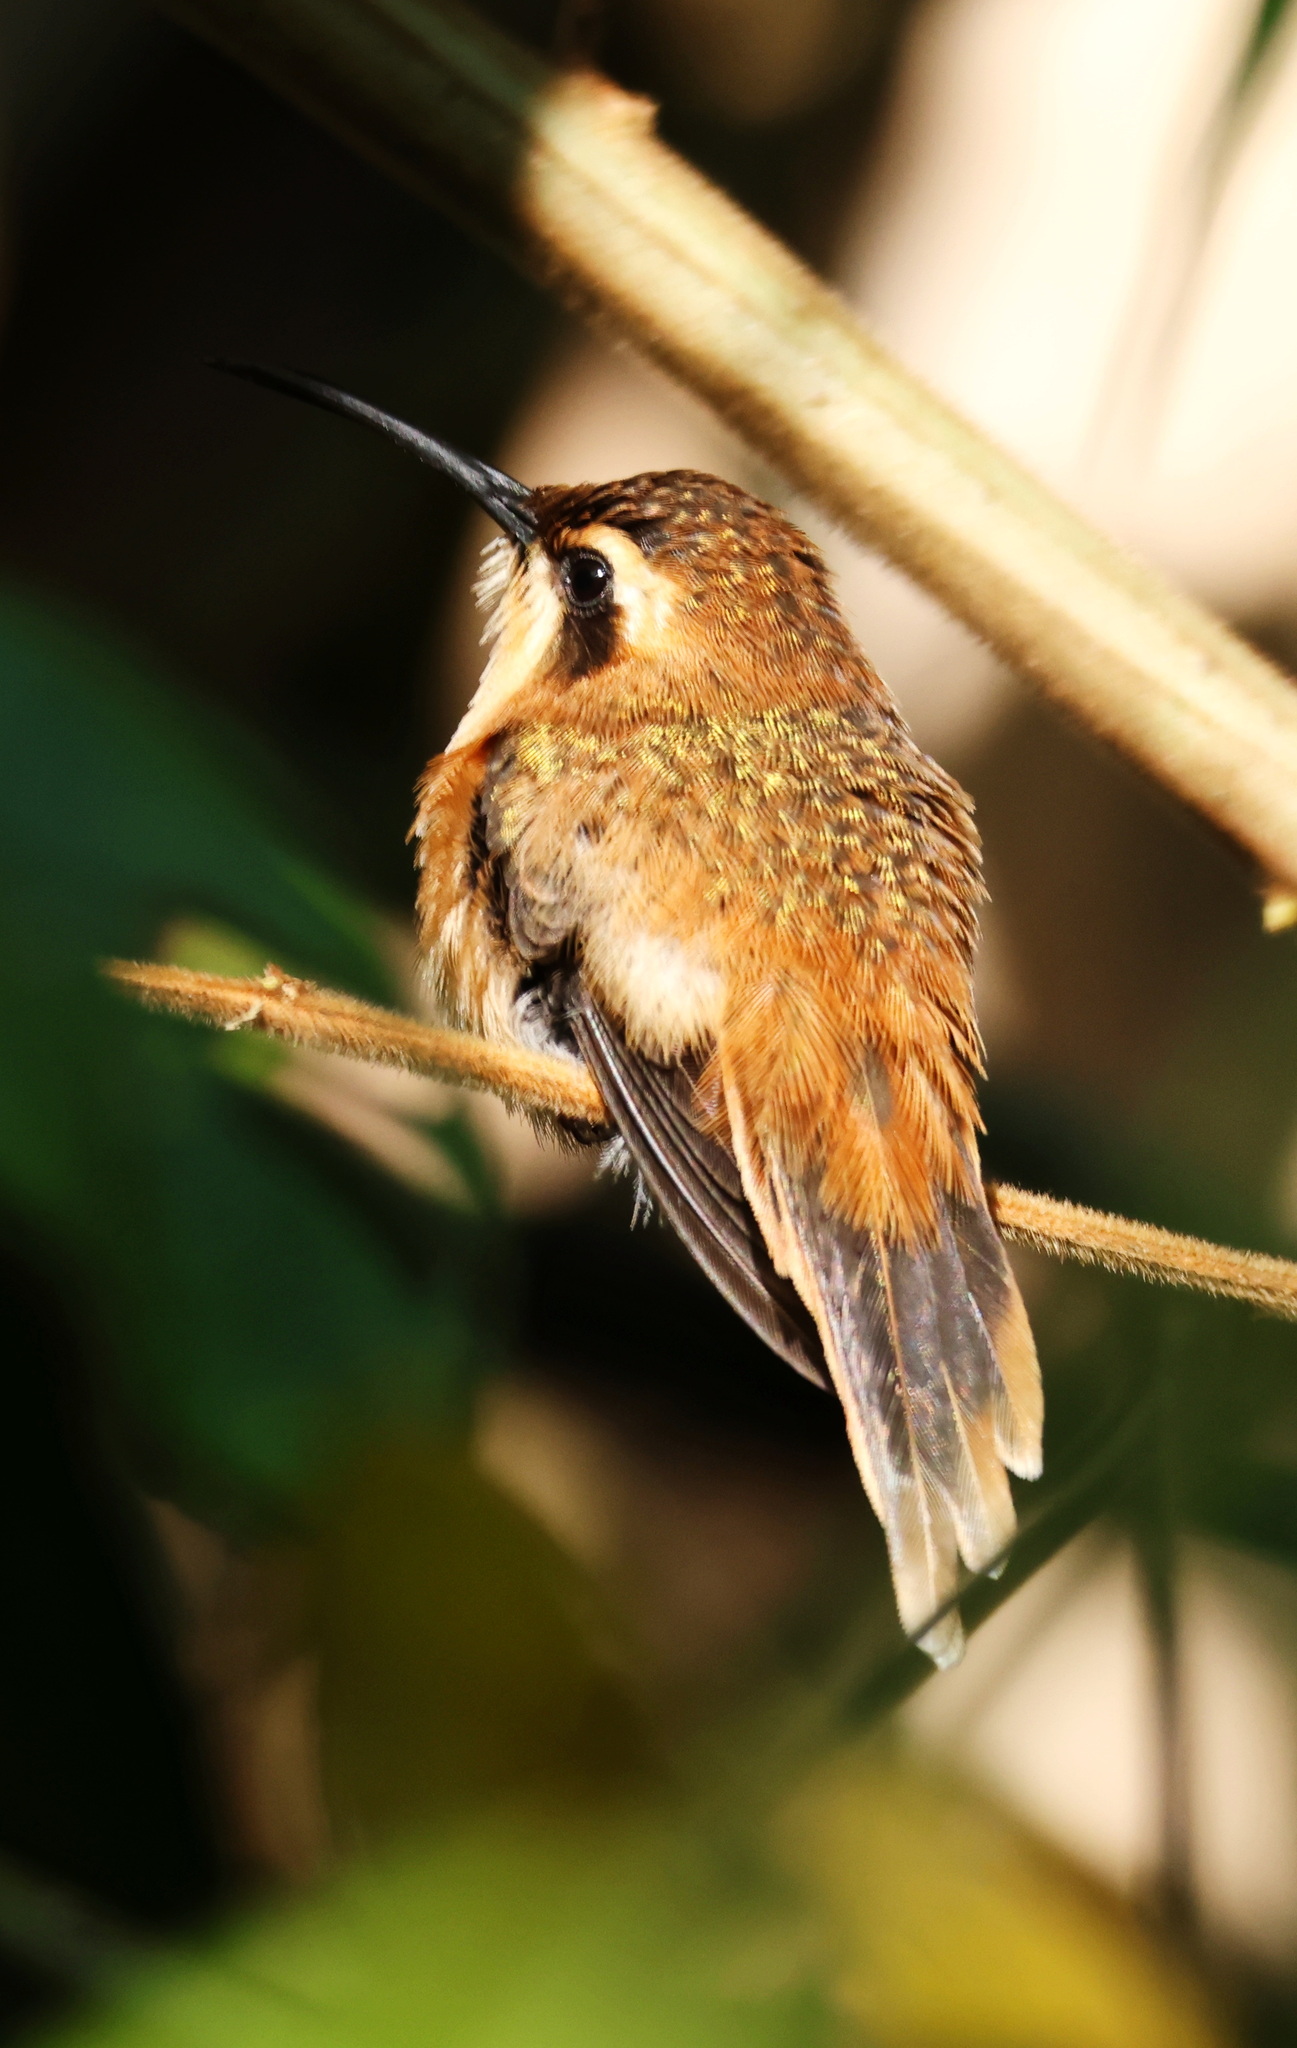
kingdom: Animalia
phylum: Chordata
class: Aves
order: Apodiformes
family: Trochilidae
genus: Phaethornis
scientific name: Phaethornis striigularis
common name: Stripe-throated hermit
